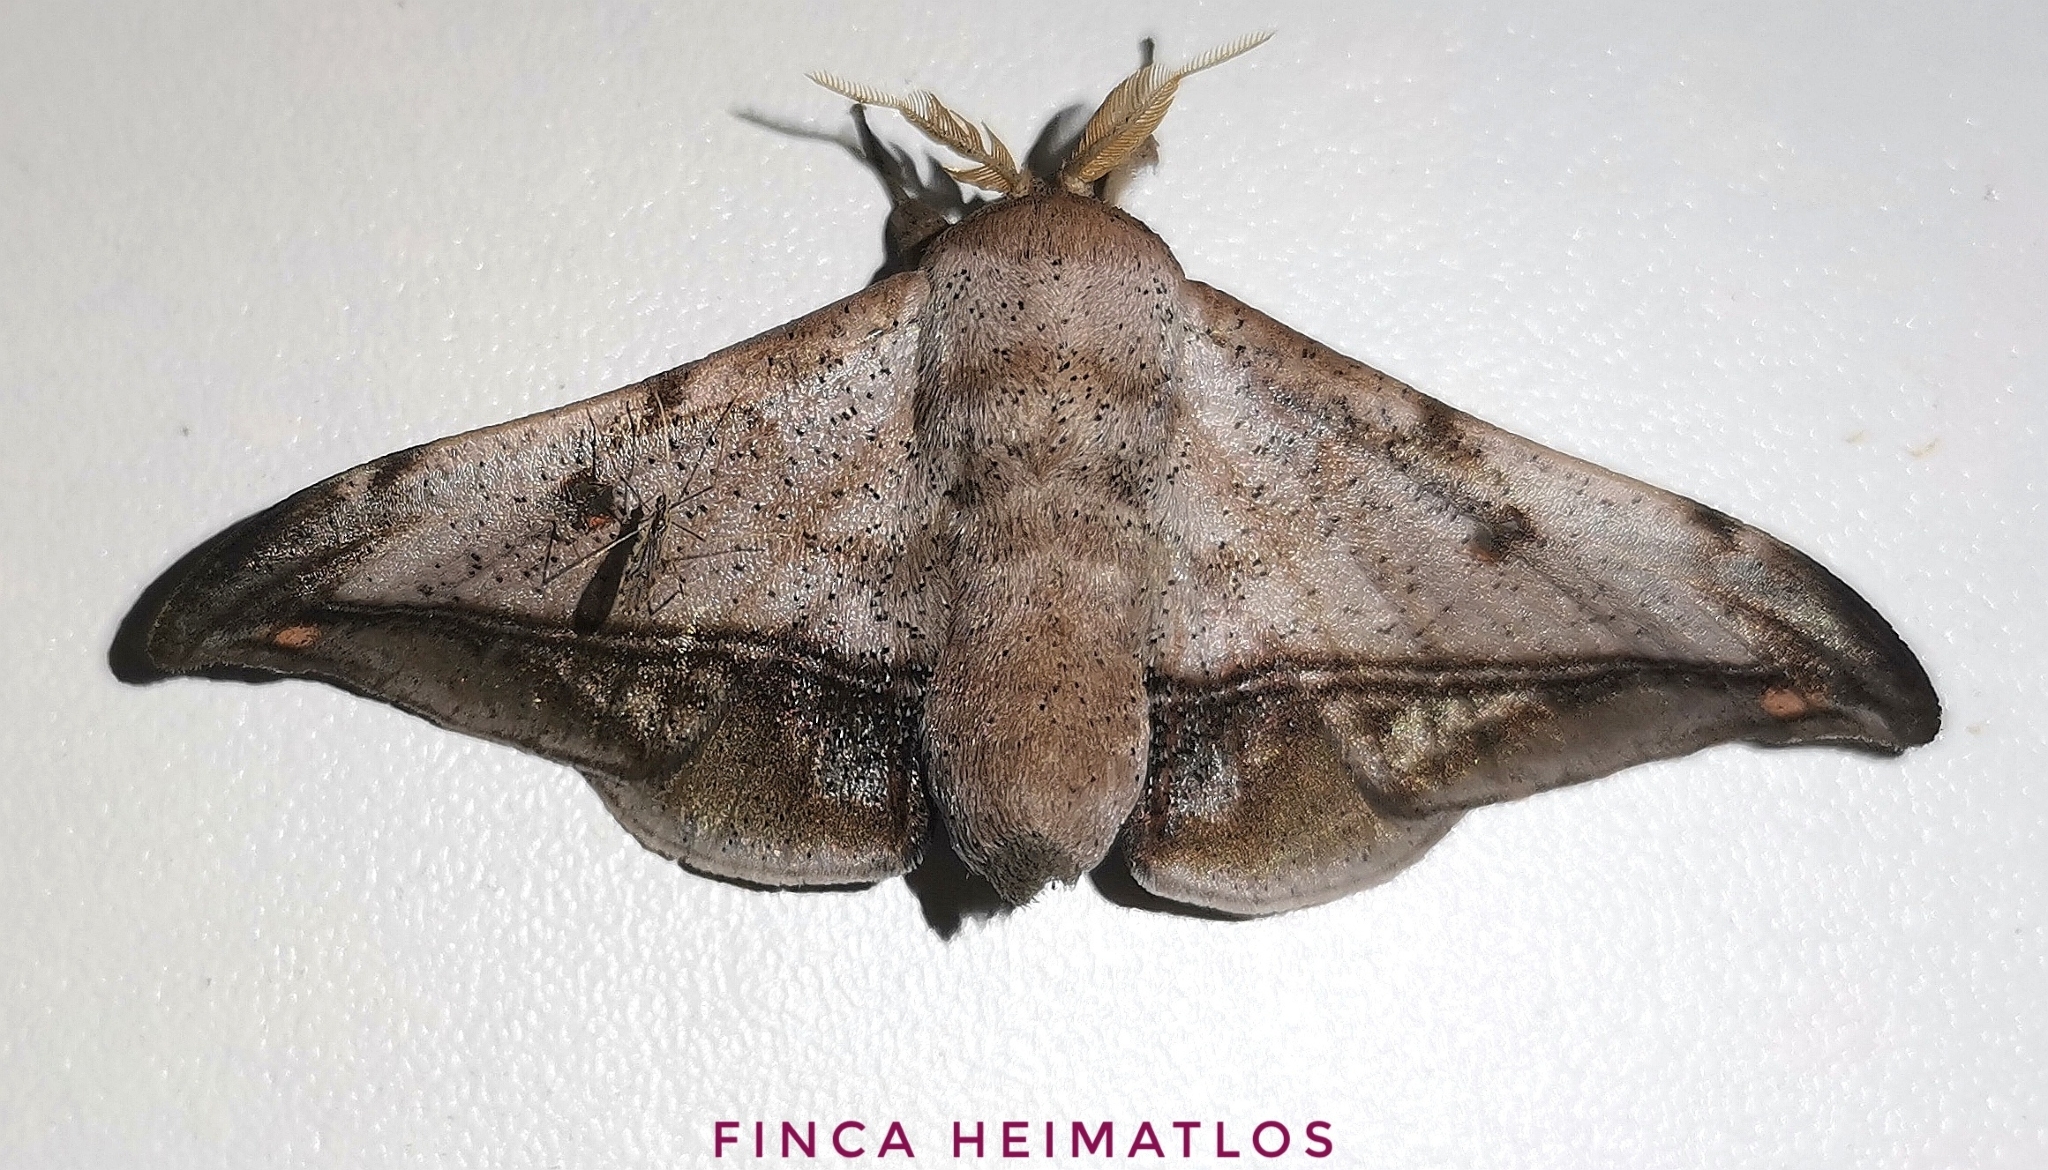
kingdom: Animalia
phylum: Arthropoda
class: Insecta
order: Lepidoptera
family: Mimallonidae
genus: Cicinnus
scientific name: Cicinnus fogia
